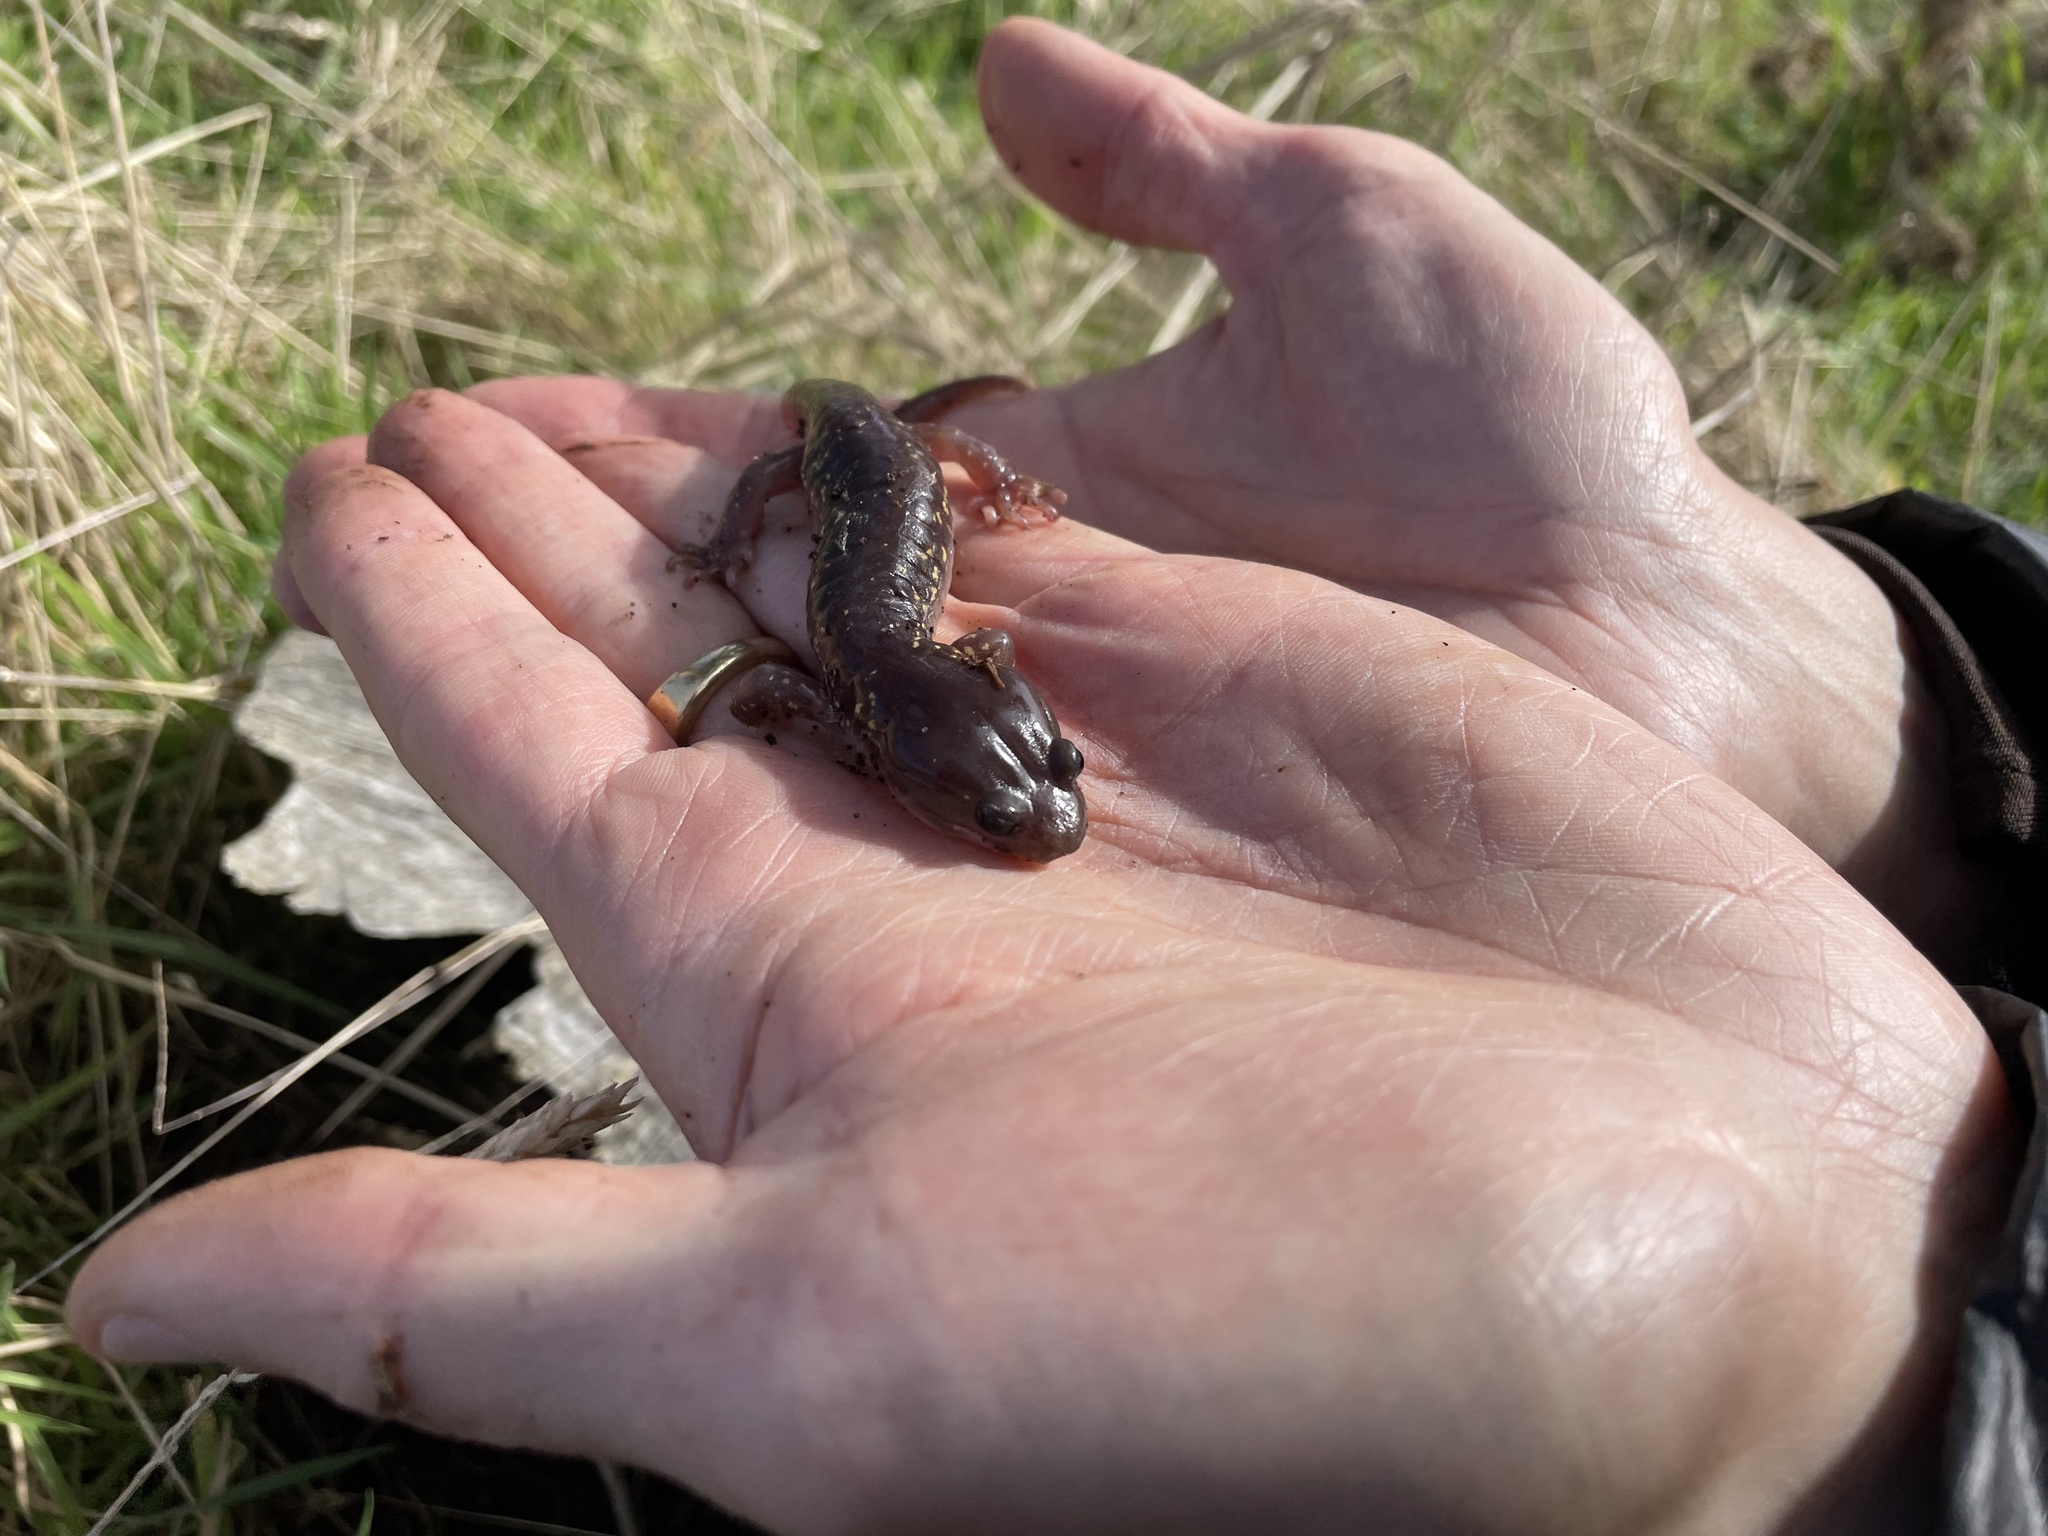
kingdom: Animalia
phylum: Chordata
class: Amphibia
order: Caudata
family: Plethodontidae
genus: Aneides
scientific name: Aneides lugubris
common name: Arboreal salamander
